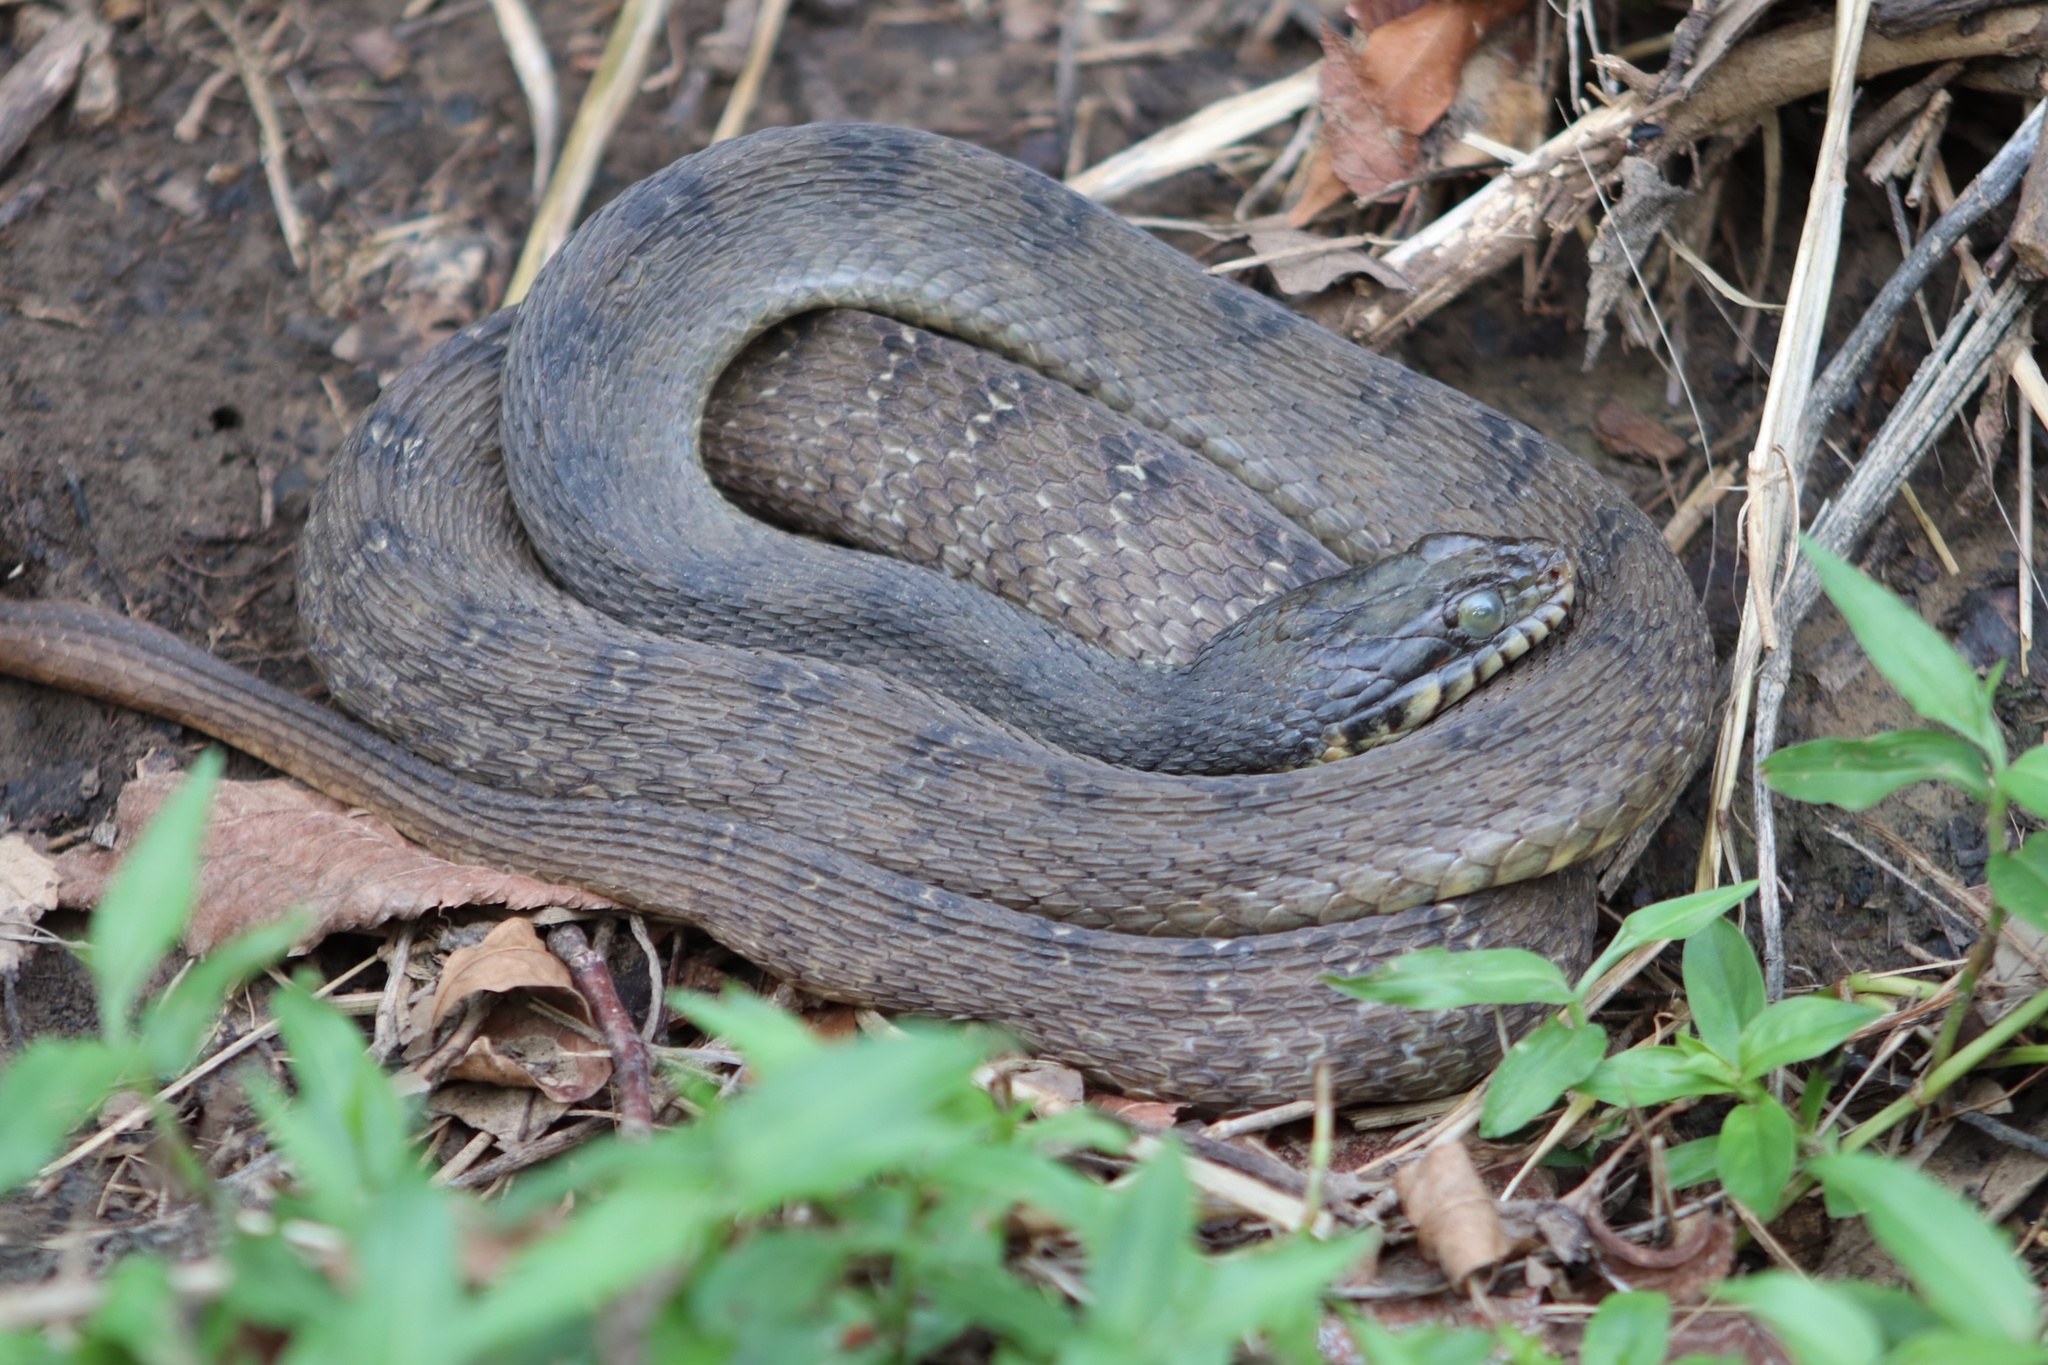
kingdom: Animalia
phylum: Chordata
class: Squamata
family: Colubridae
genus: Nerodia
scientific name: Nerodia erythrogaster
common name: Plainbelly water snake
